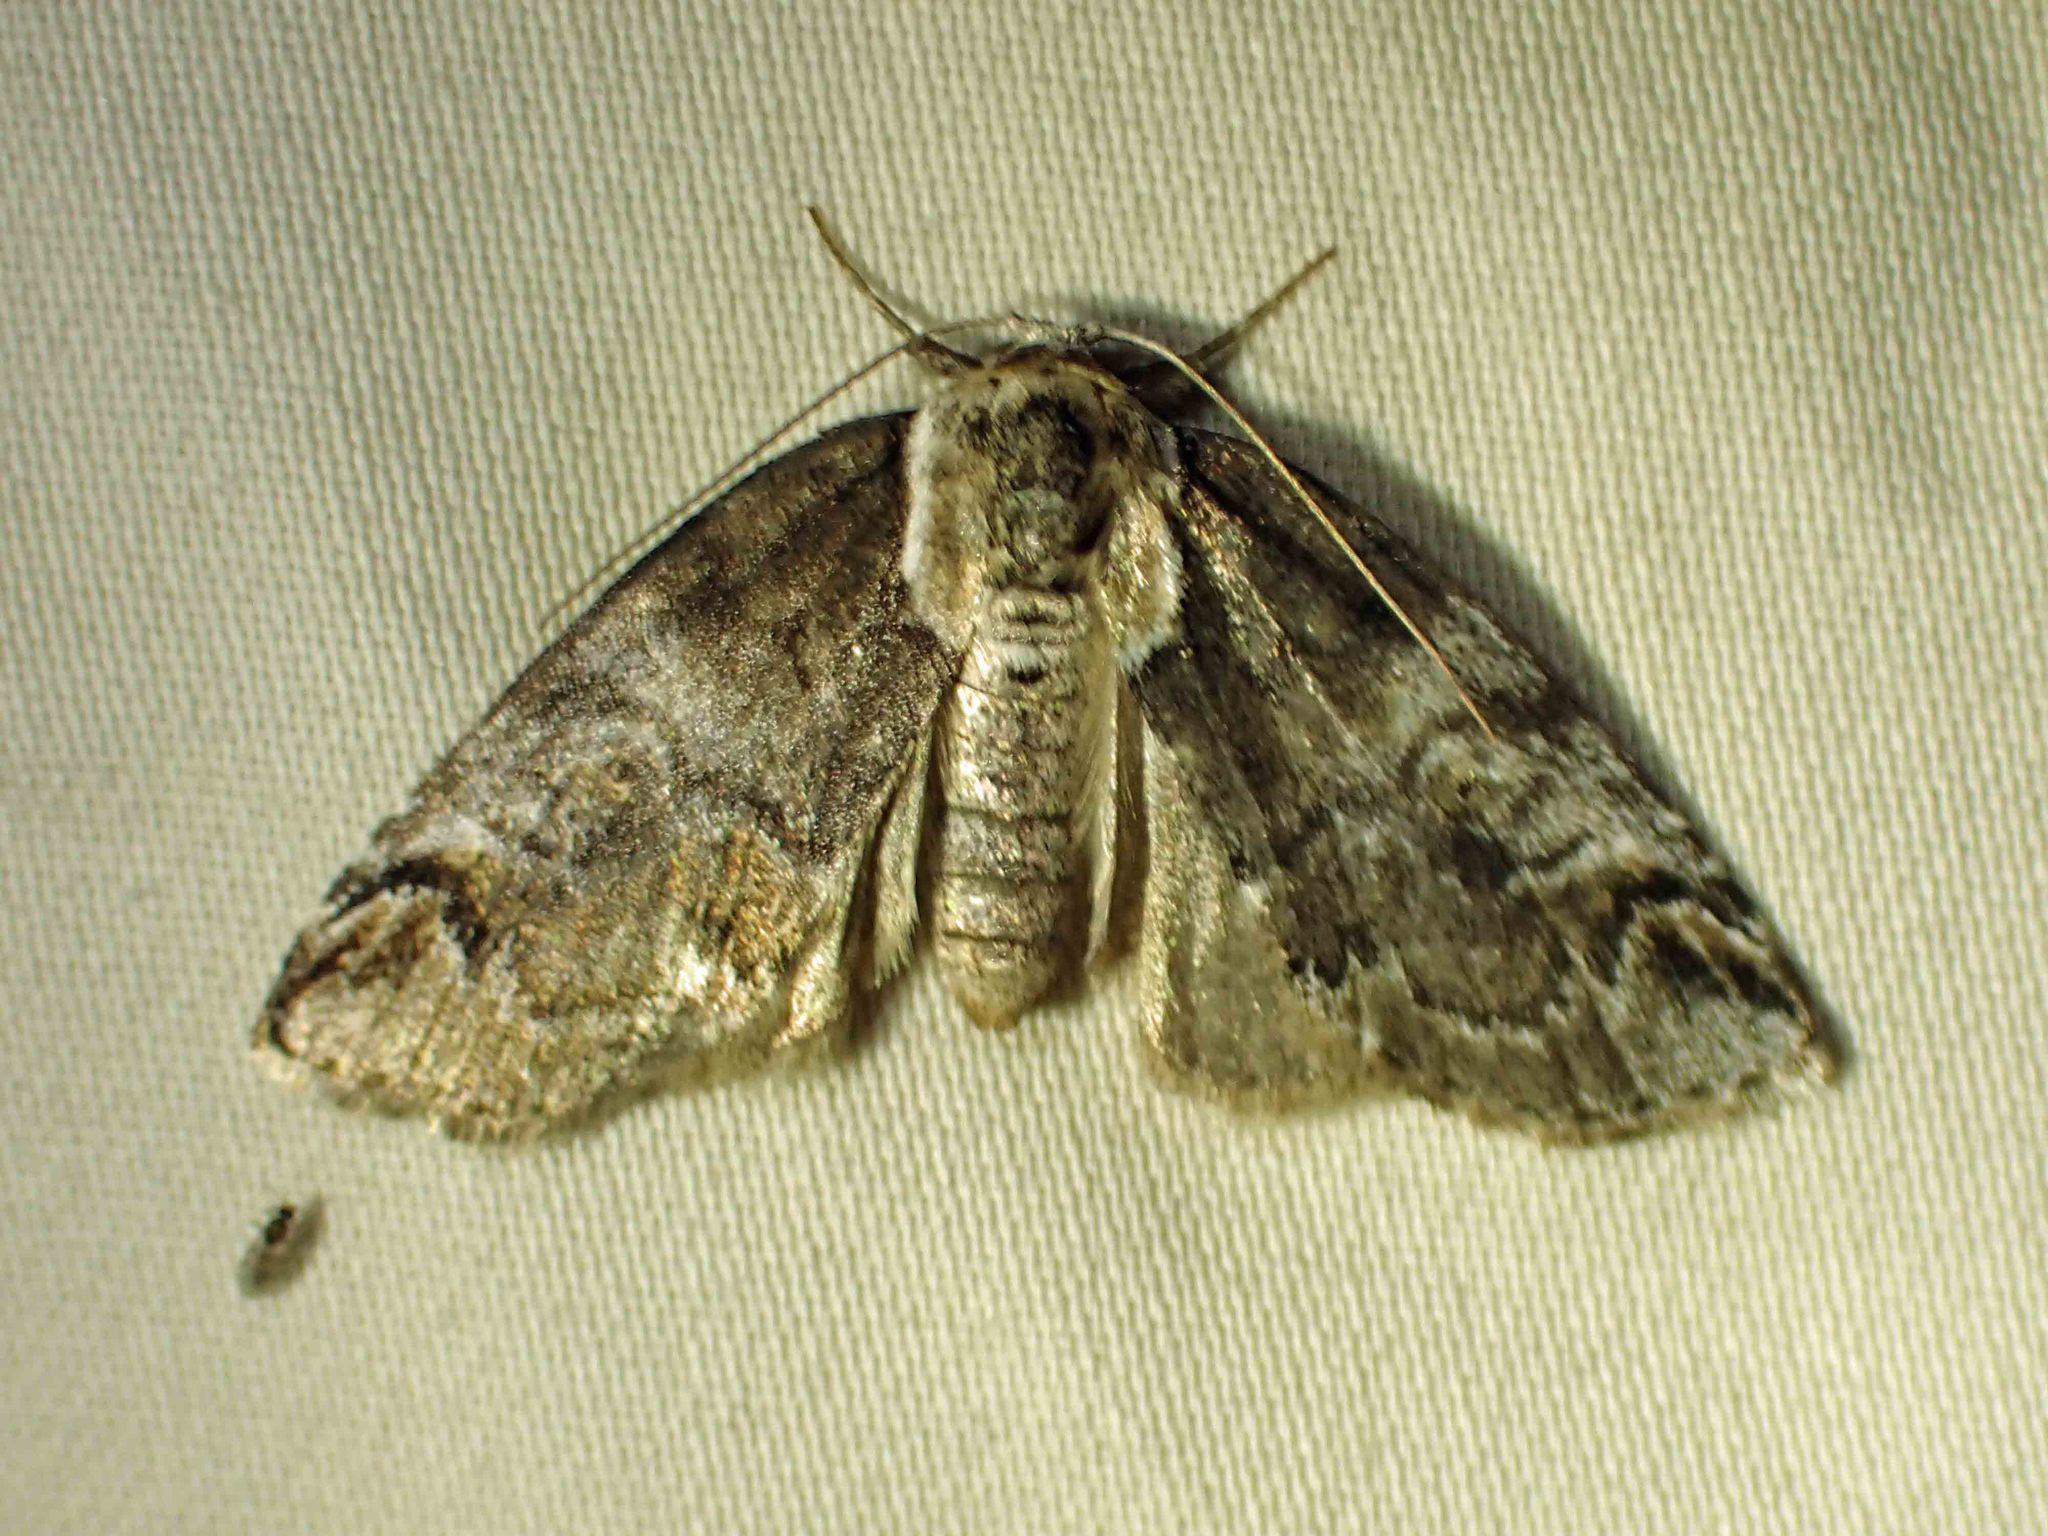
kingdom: Animalia
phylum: Arthropoda
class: Insecta
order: Lepidoptera
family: Nolidae
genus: Baileya
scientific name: Baileya ophthalmica
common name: Eyed baileya moth
